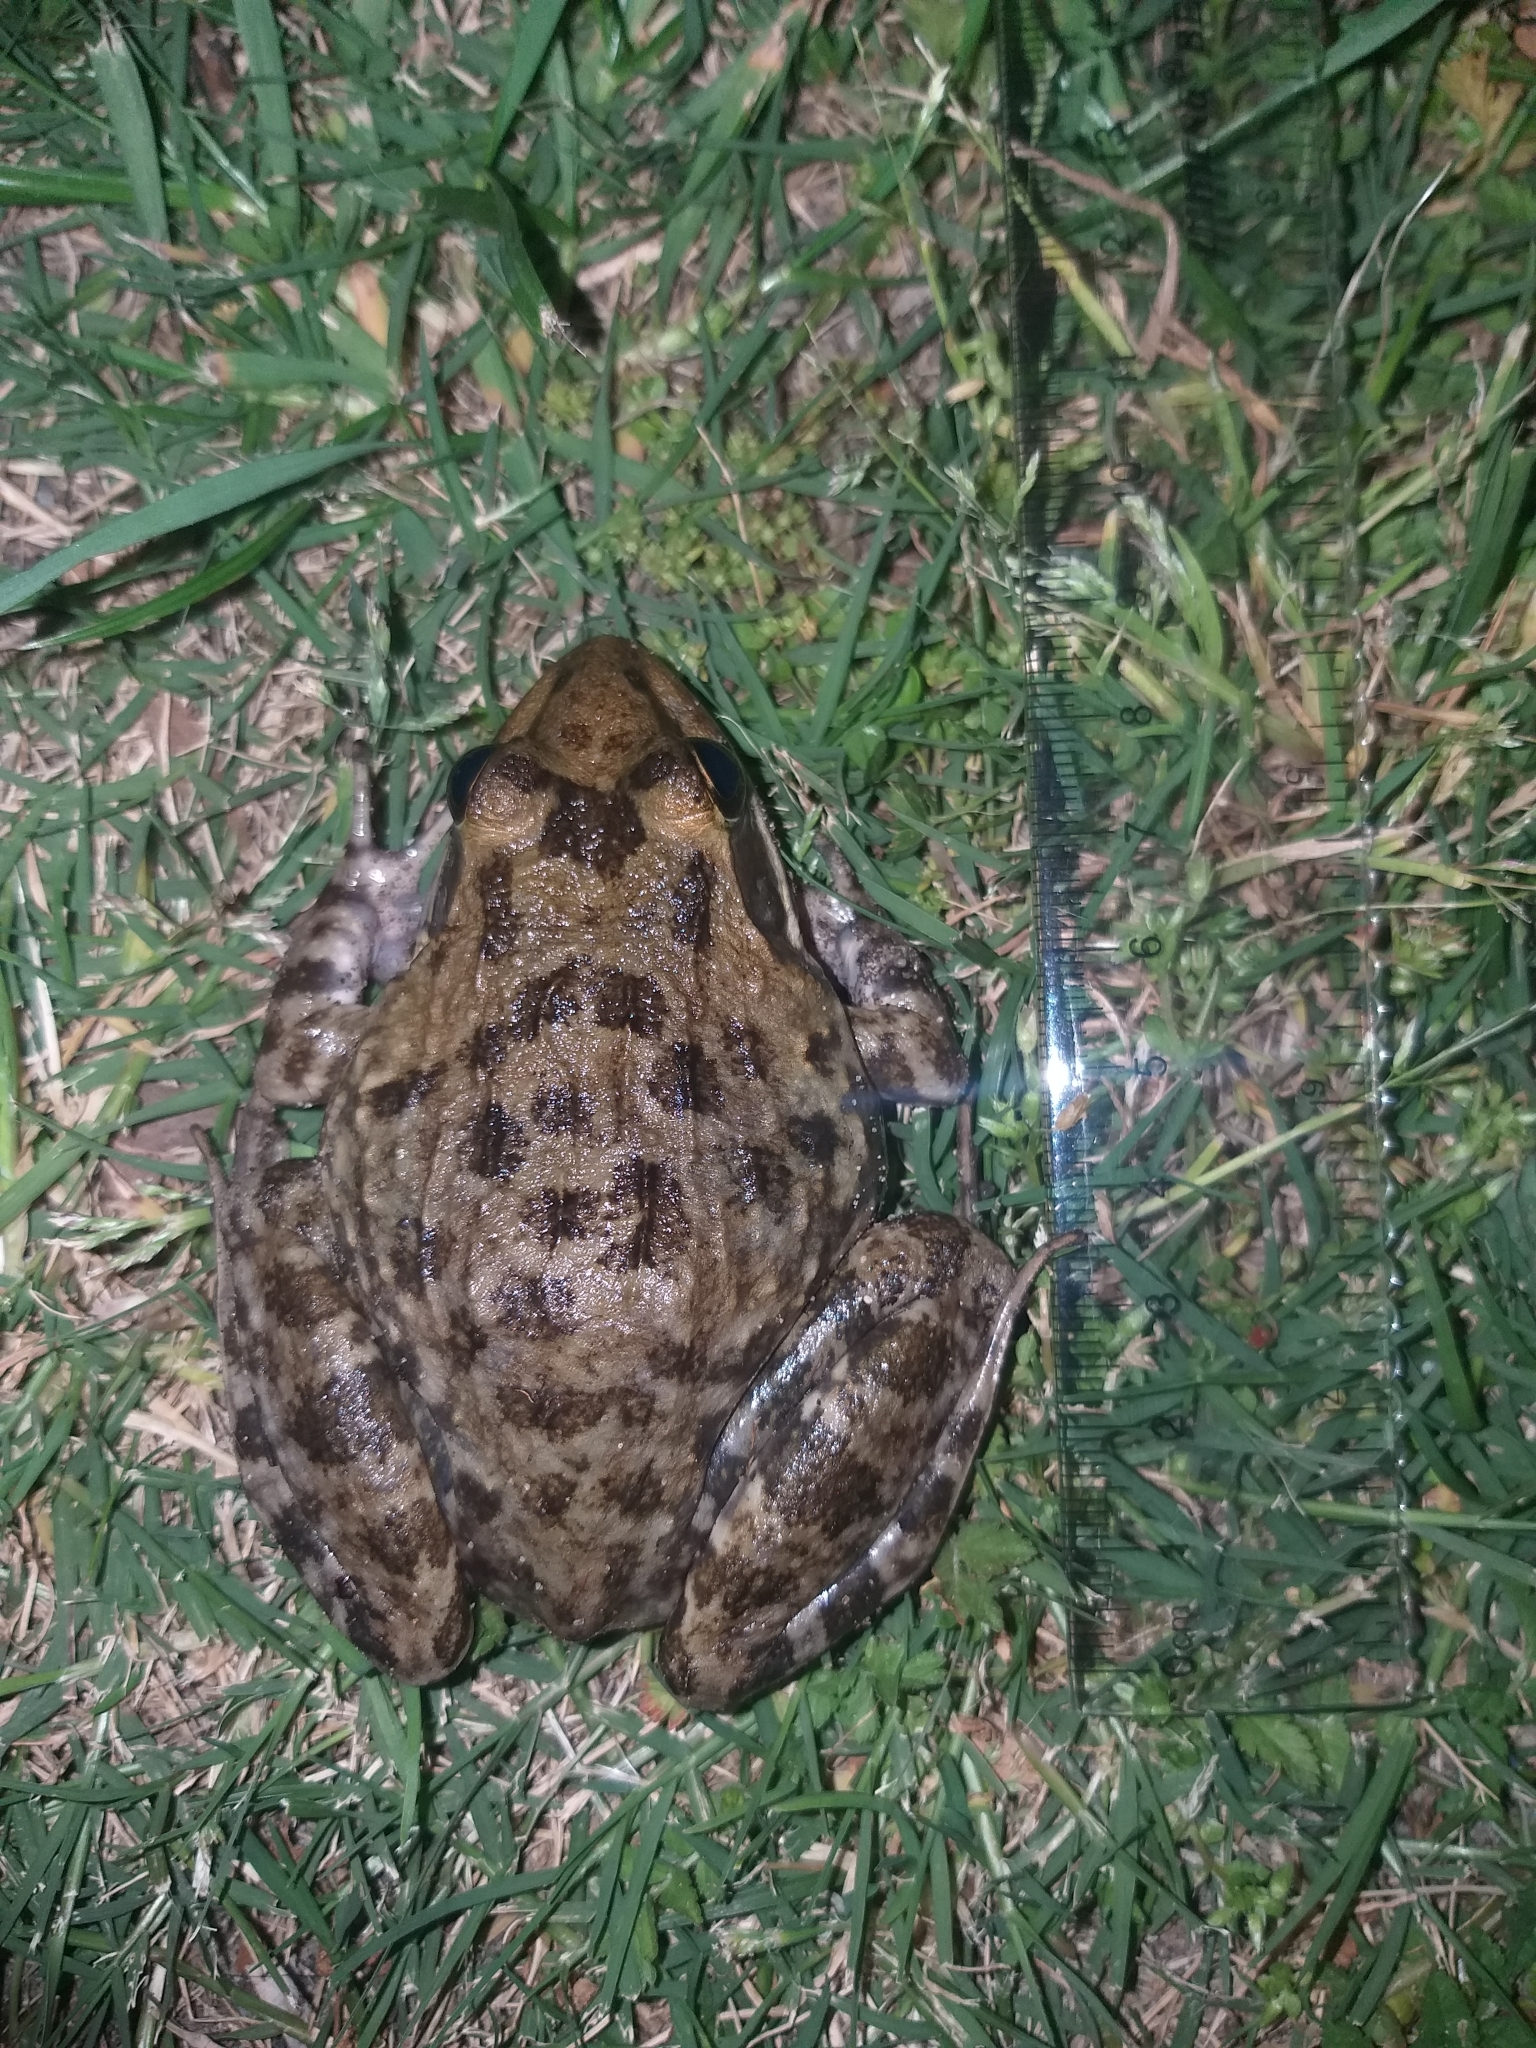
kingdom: Animalia
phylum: Chordata
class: Amphibia
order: Anura
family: Pyxicephalidae
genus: Amietia
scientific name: Amietia fuscigula
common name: Cape rana
